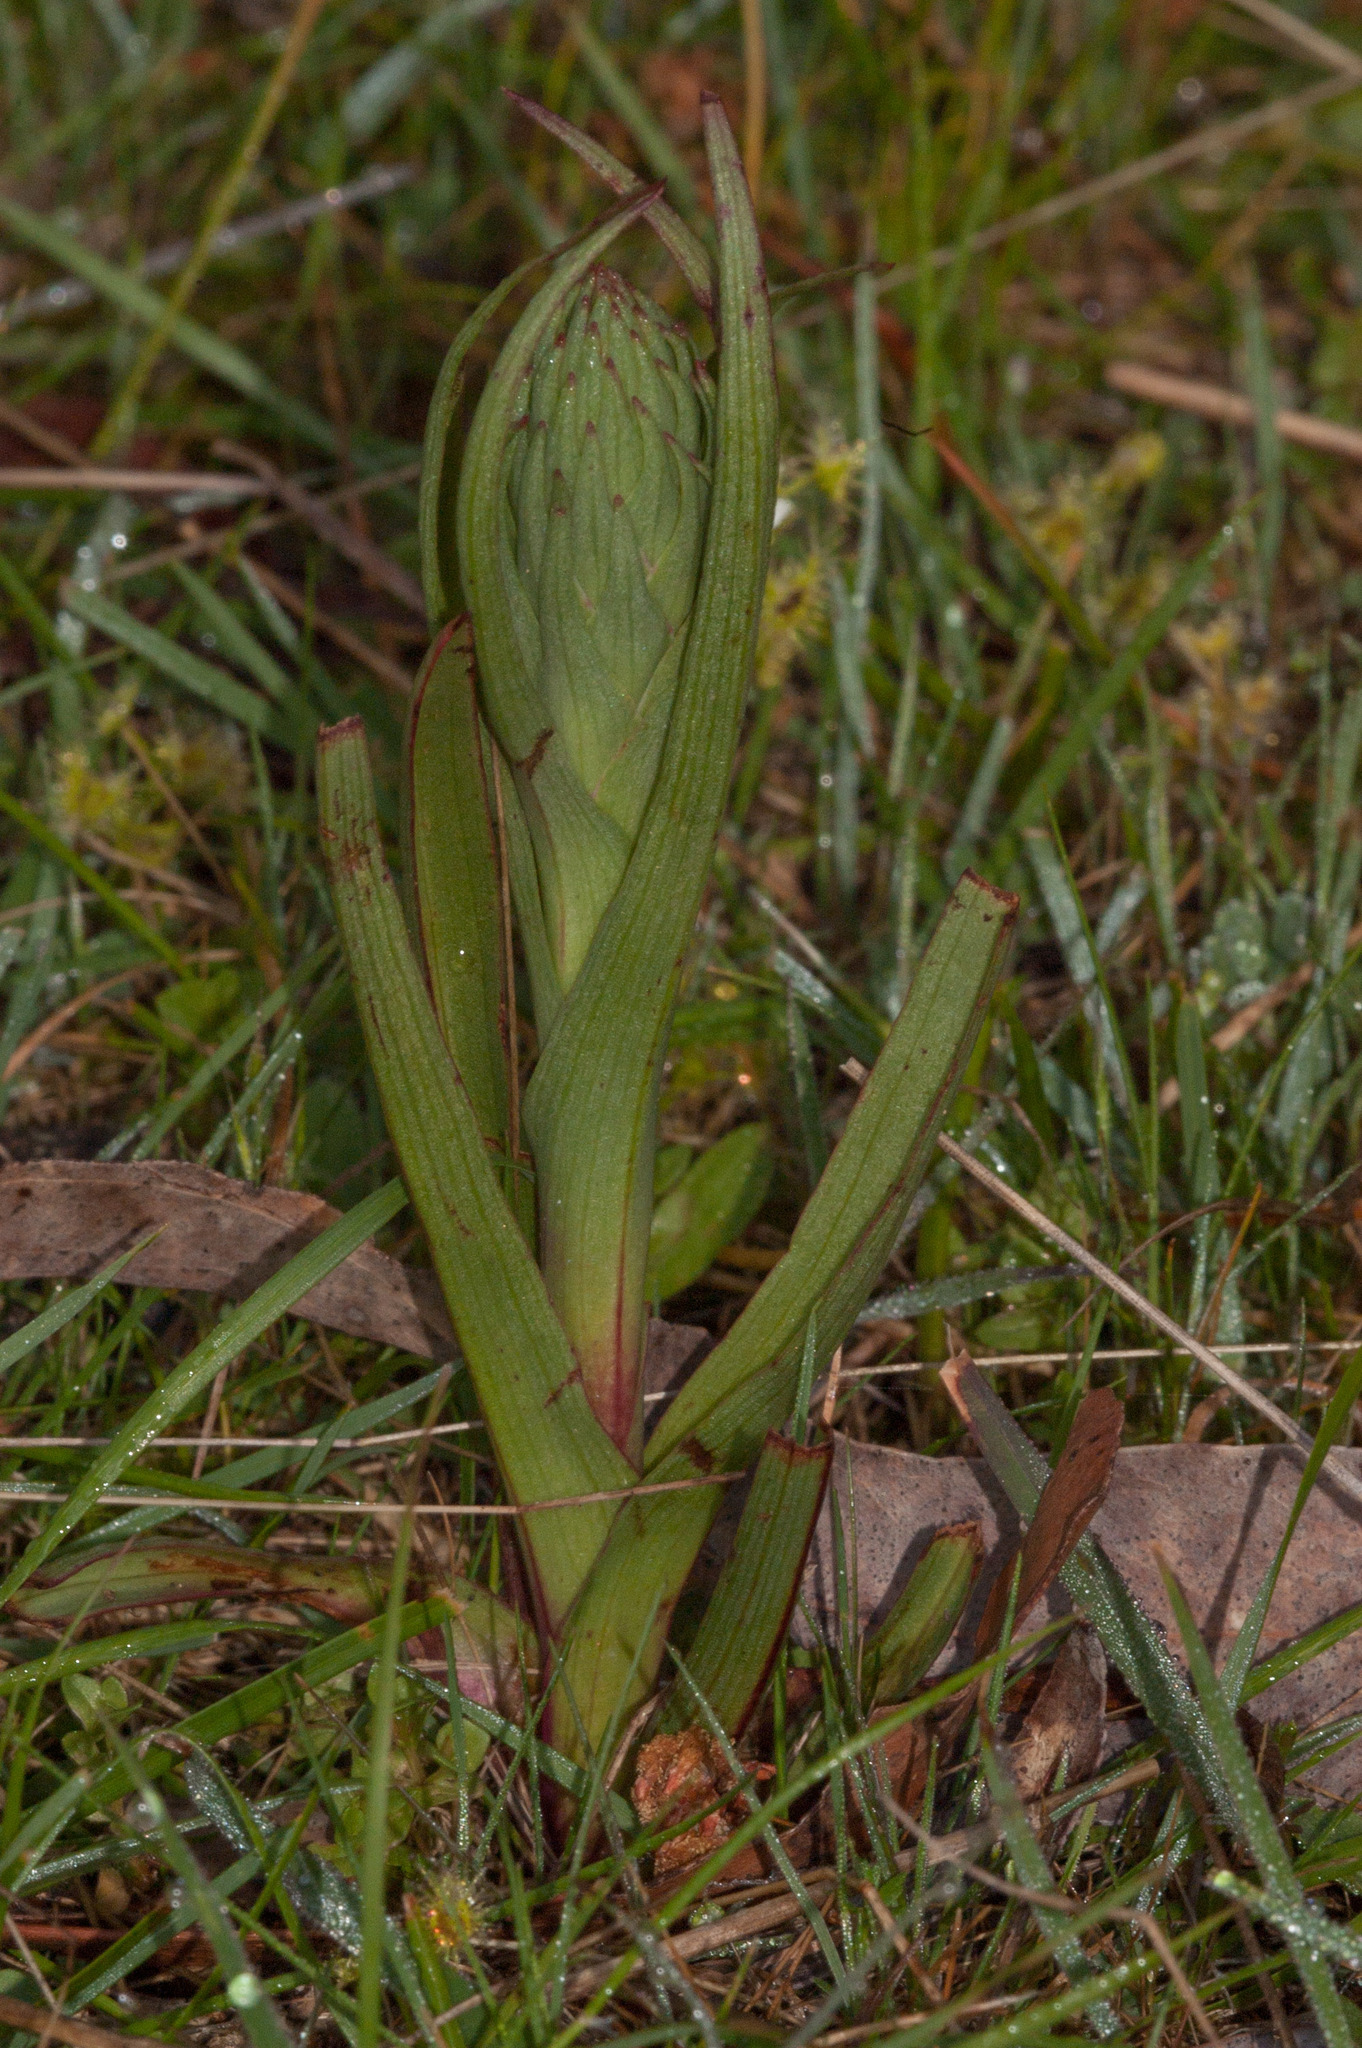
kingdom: Plantae
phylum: Tracheophyta
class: Liliopsida
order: Asparagales
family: Orchidaceae
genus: Disa
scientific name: Disa bracteata
